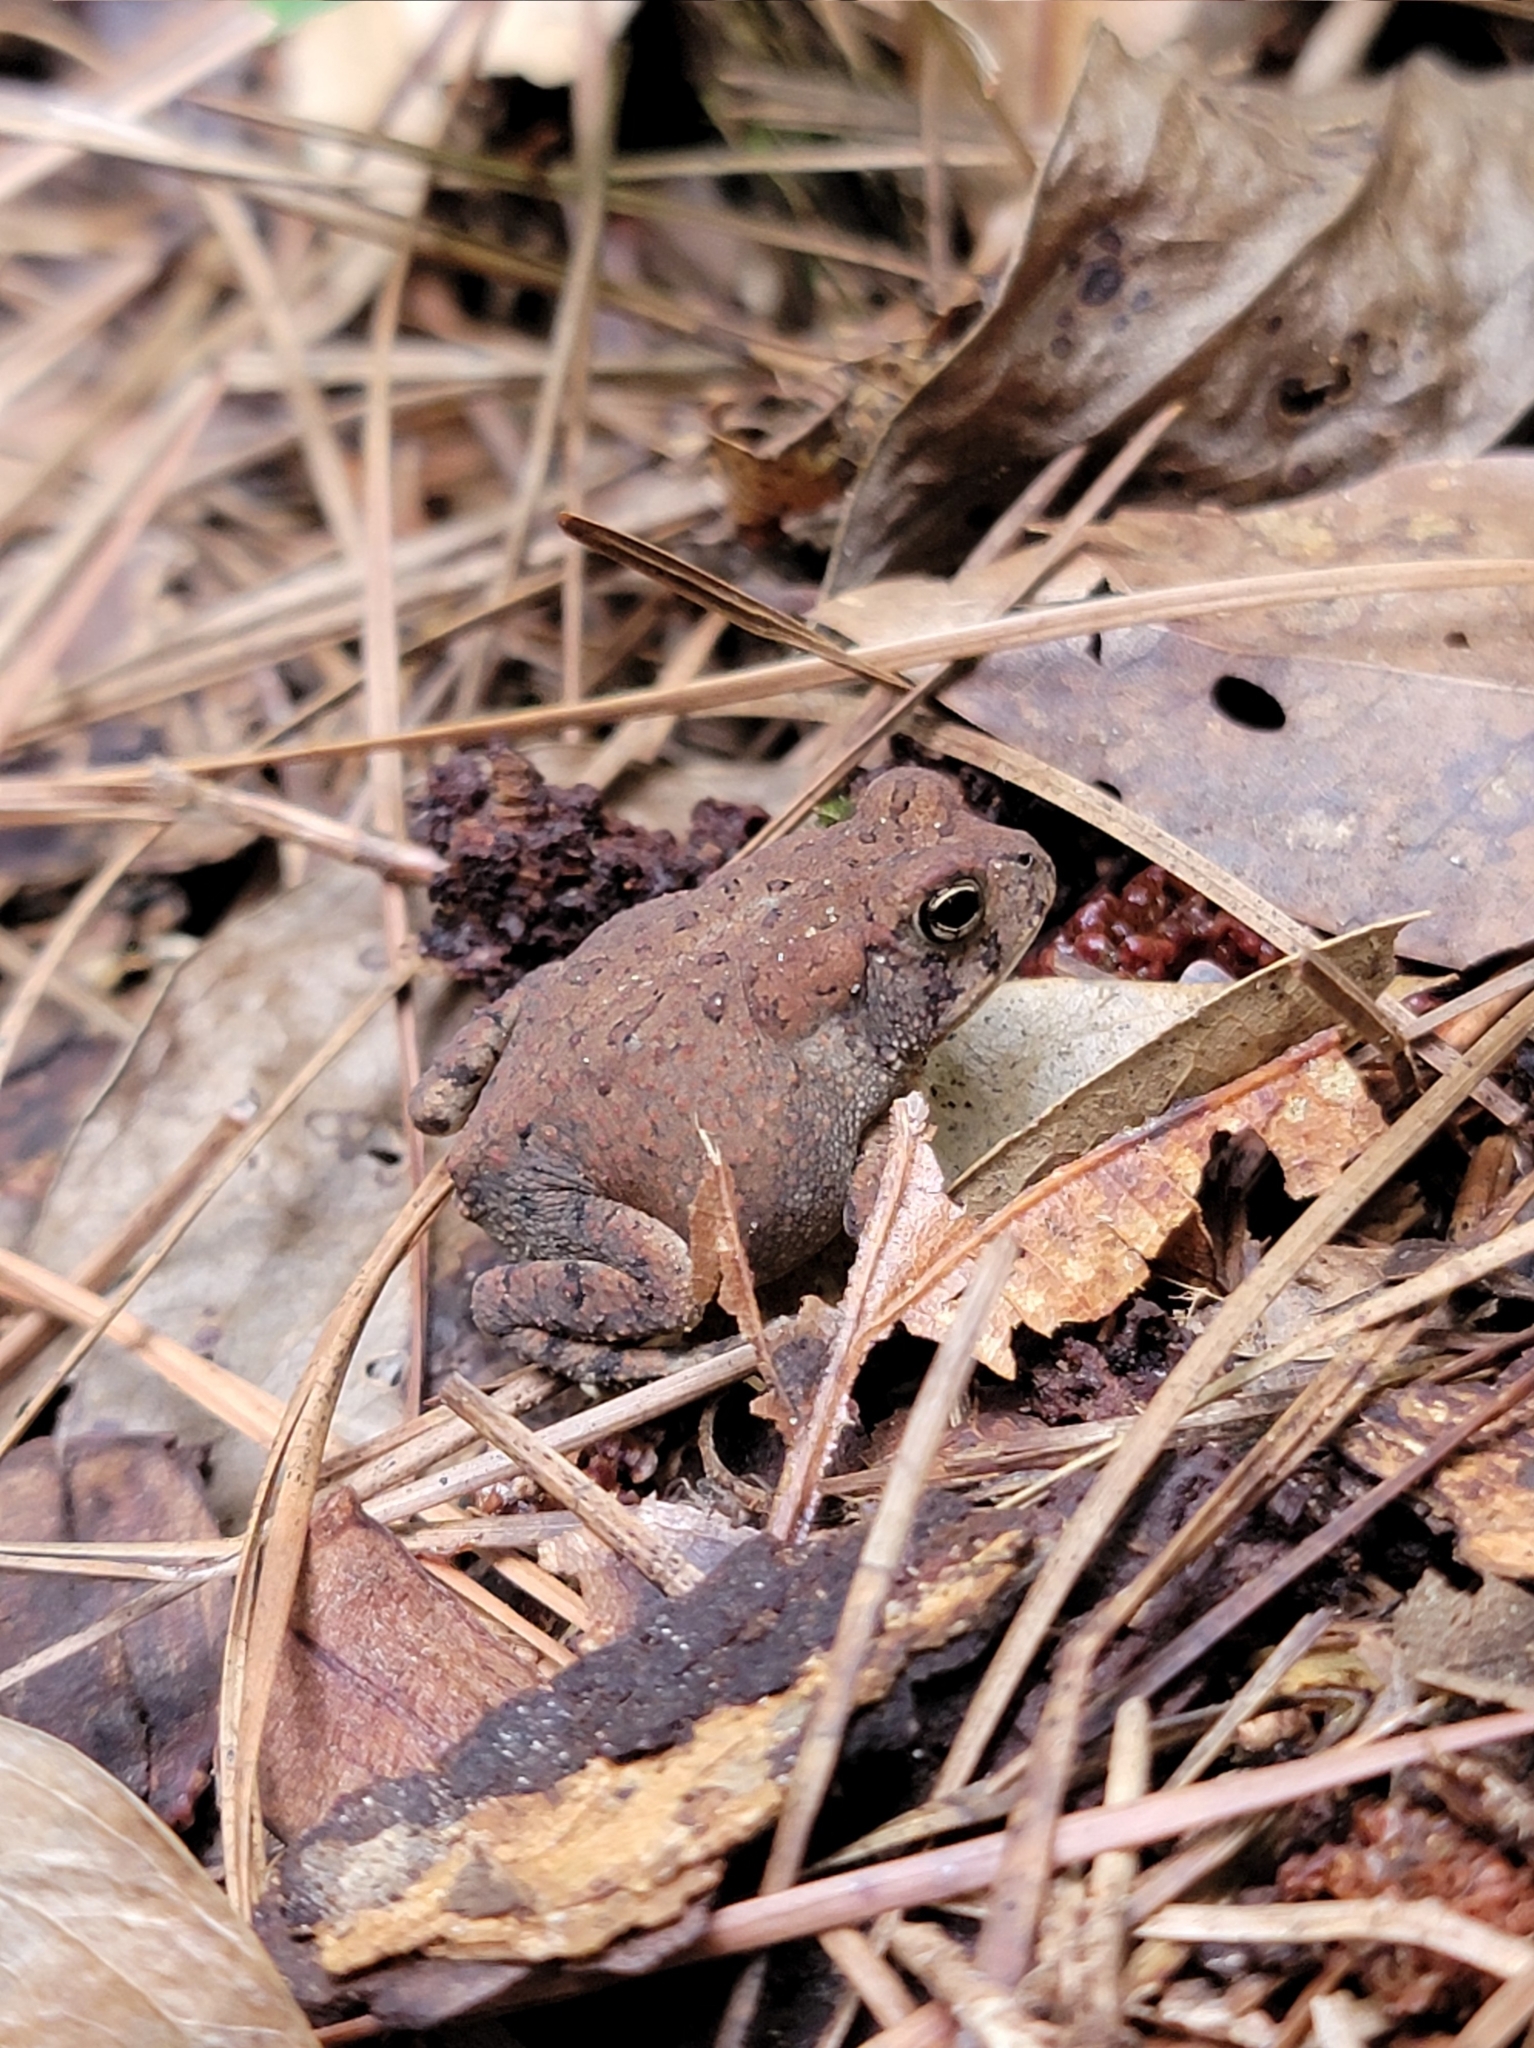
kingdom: Animalia
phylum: Chordata
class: Amphibia
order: Anura
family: Bufonidae
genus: Anaxyrus
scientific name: Anaxyrus terrestris
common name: Southern toad
